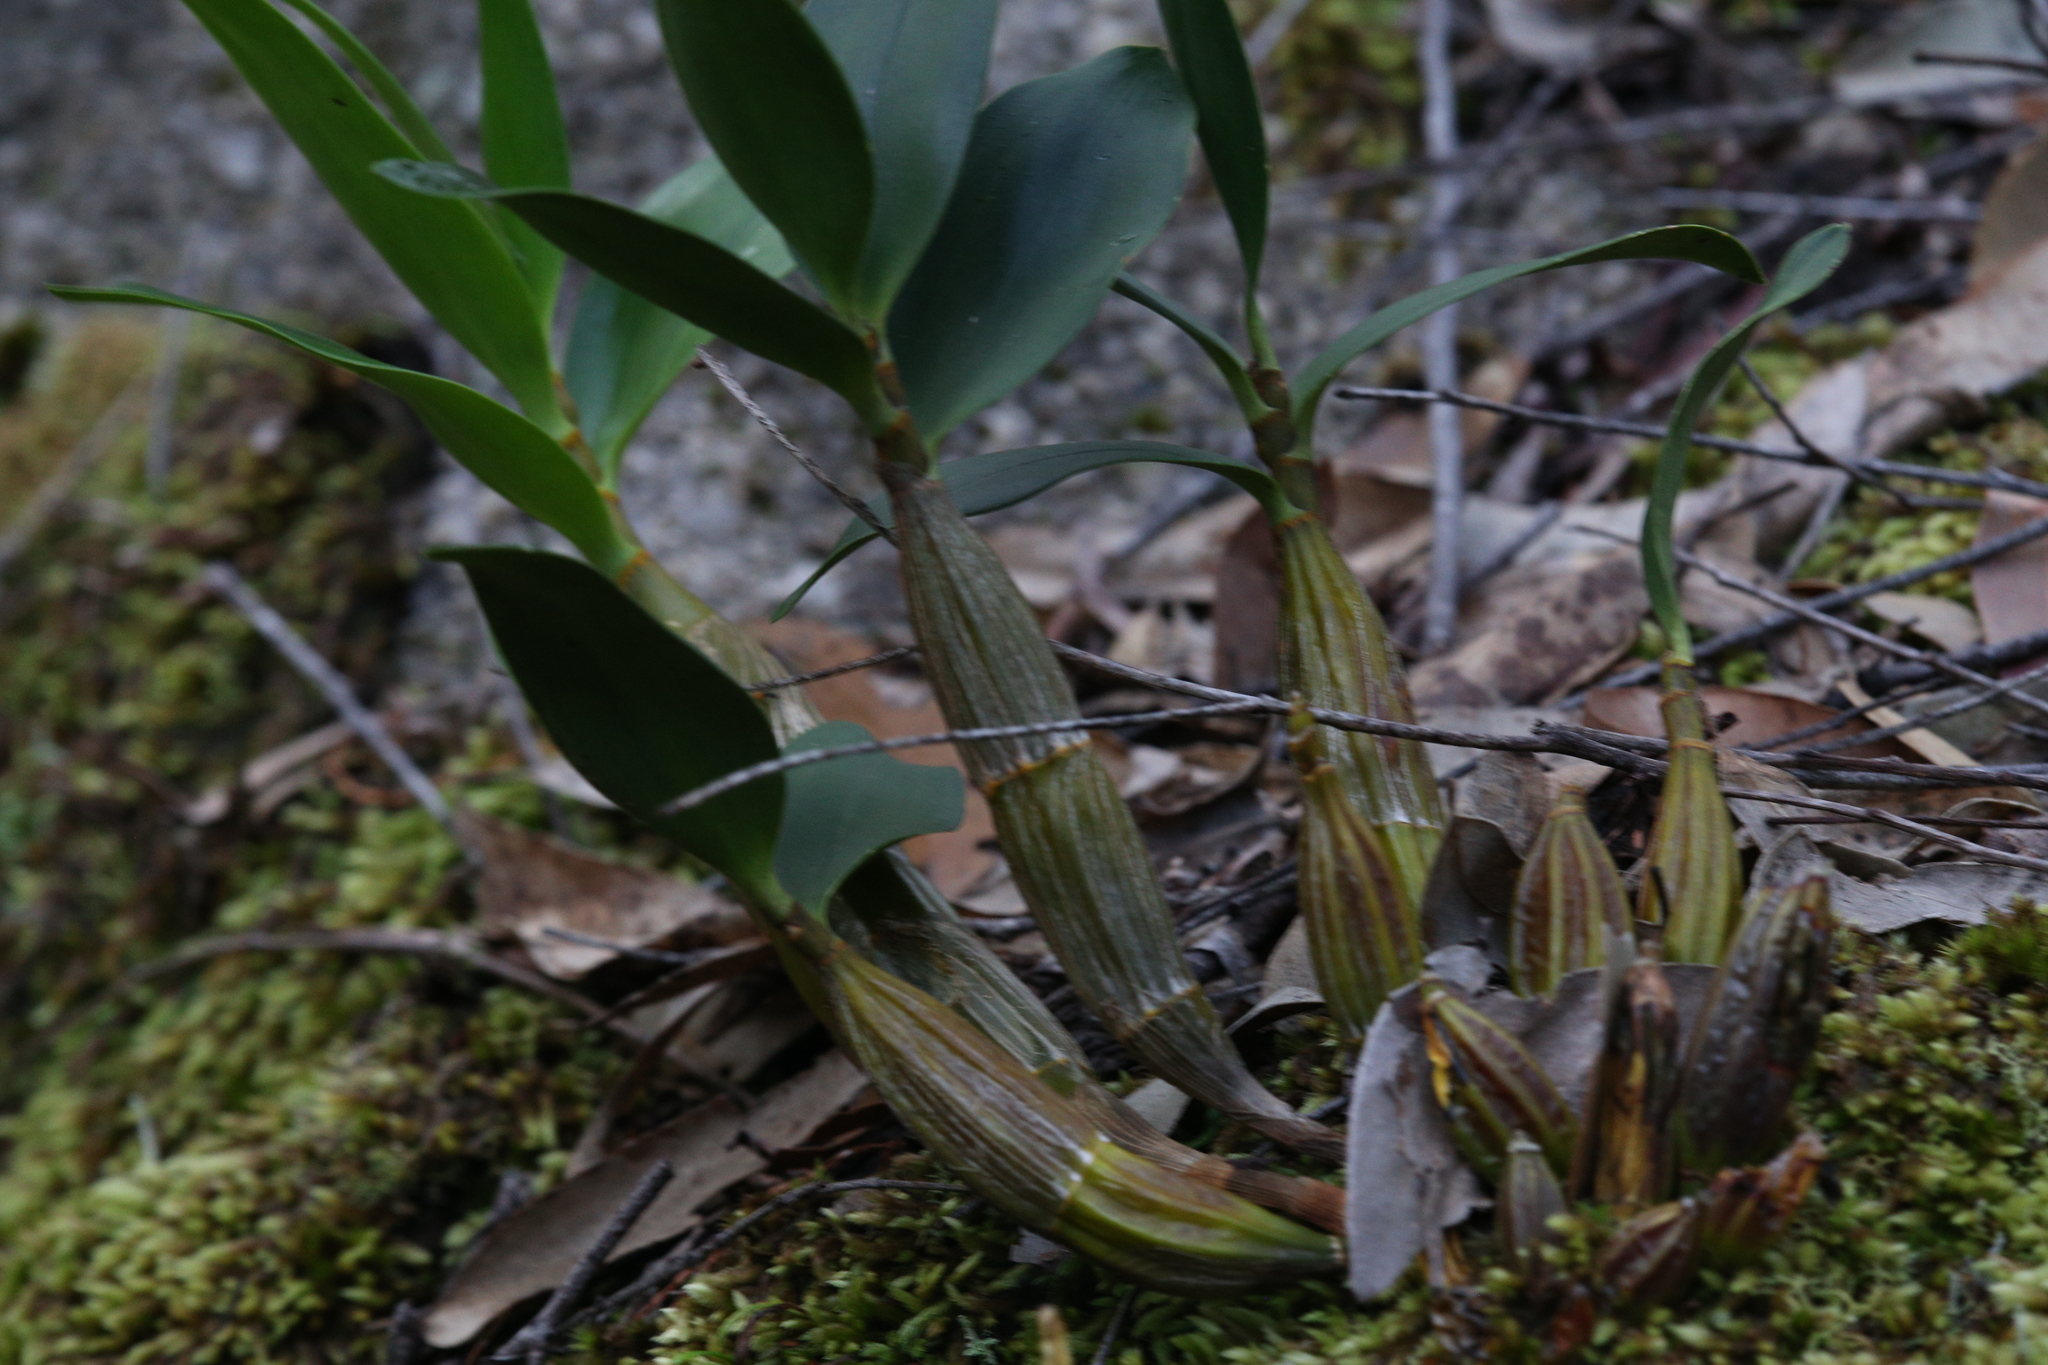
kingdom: Plantae
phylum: Tracheophyta
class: Liliopsida
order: Asparagales
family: Orchidaceae
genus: Dendrobium
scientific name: Dendrobium jonesii
